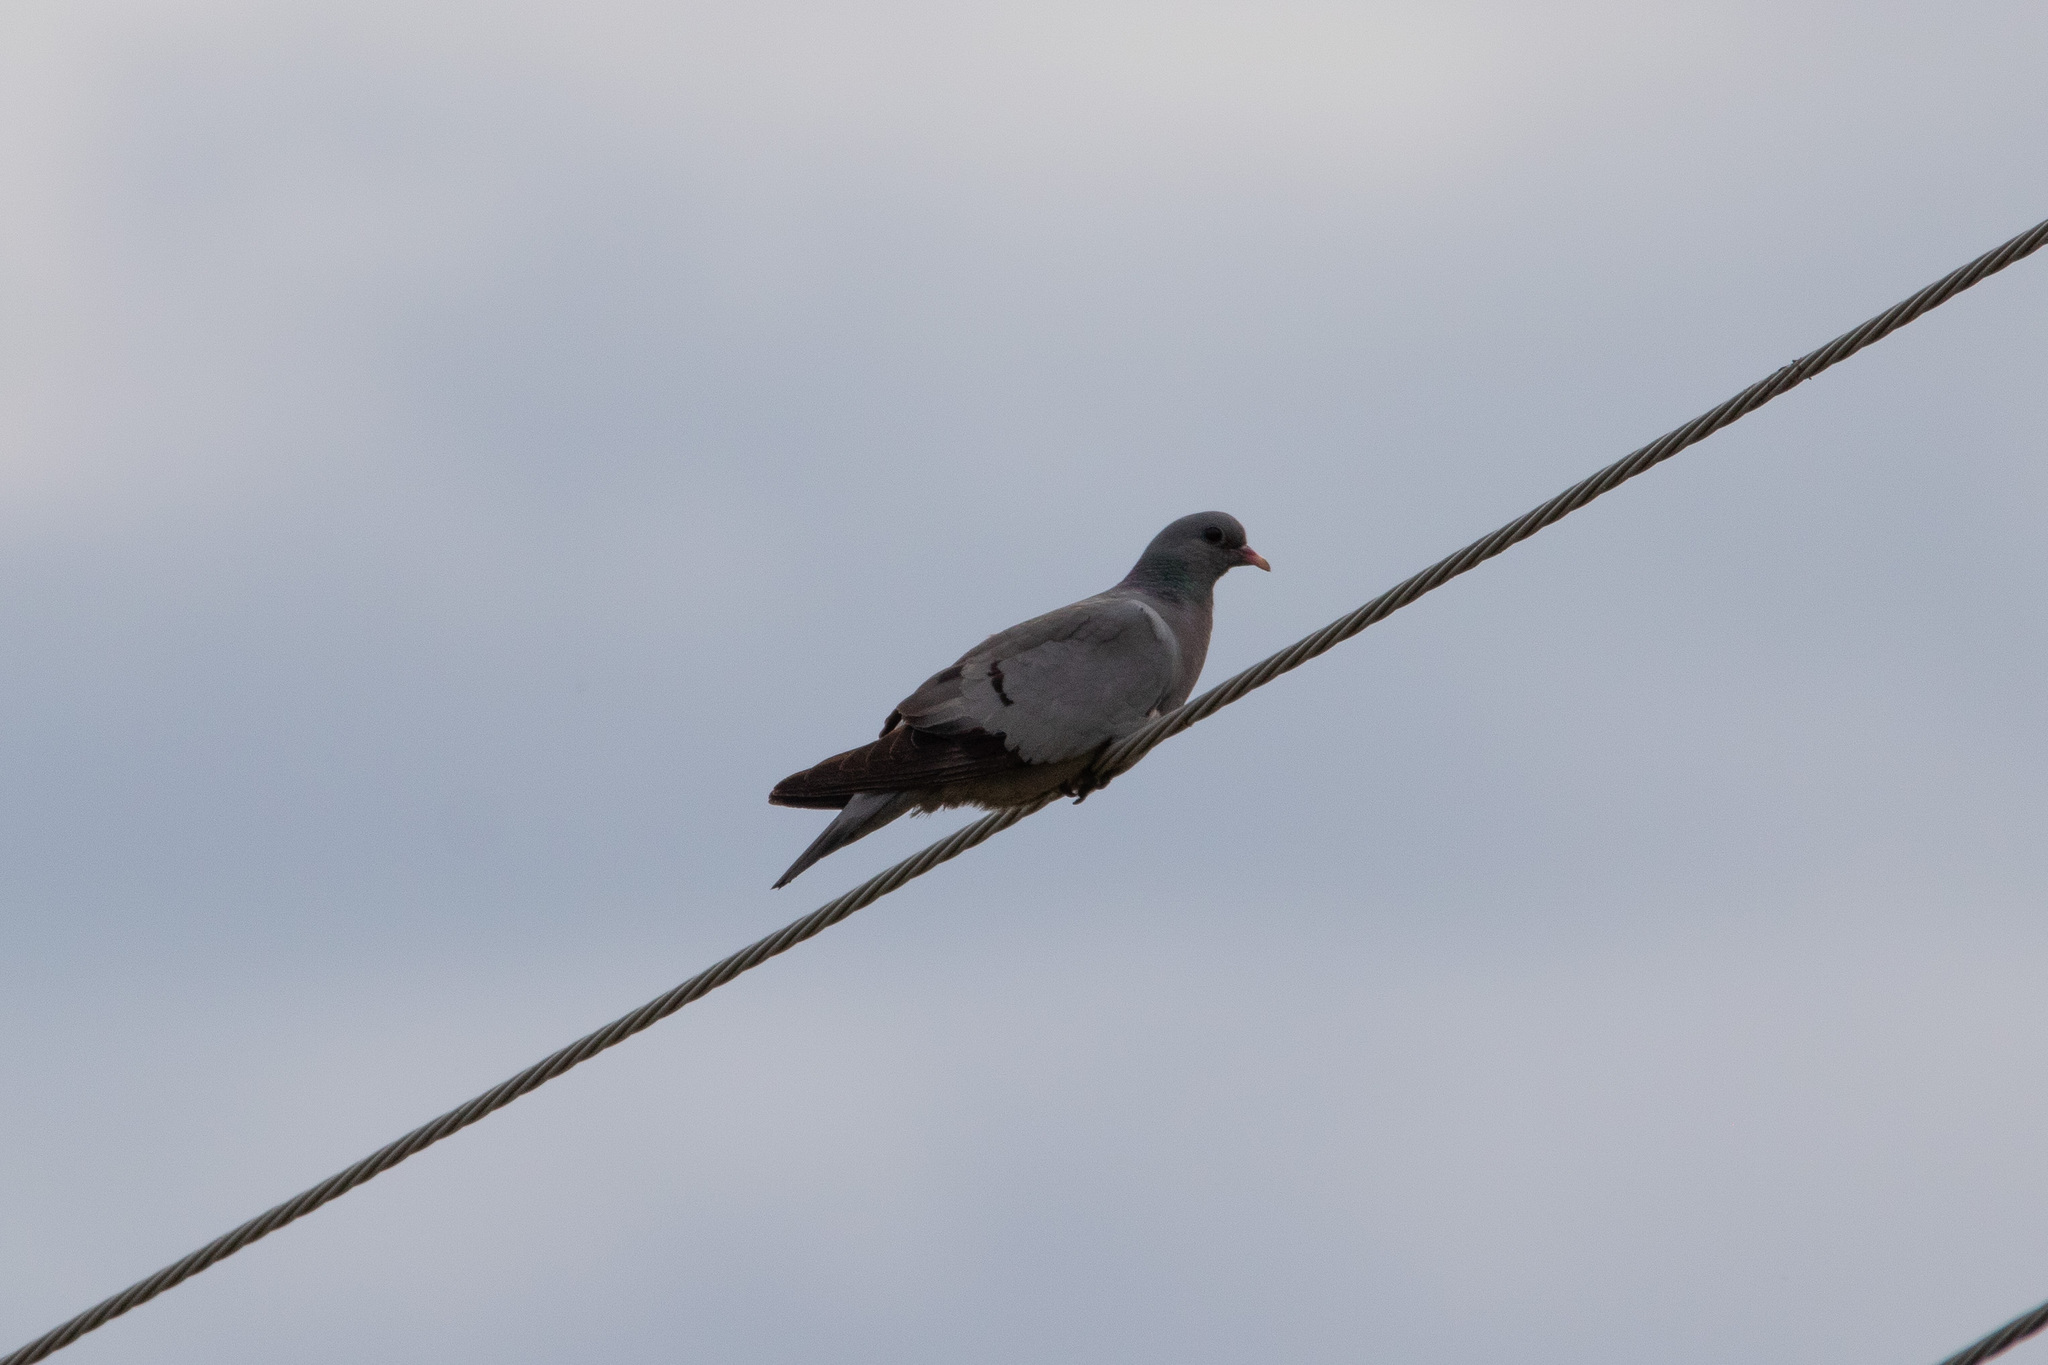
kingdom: Animalia
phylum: Chordata
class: Aves
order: Columbiformes
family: Columbidae
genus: Columba
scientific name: Columba oenas
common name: Stock dove
